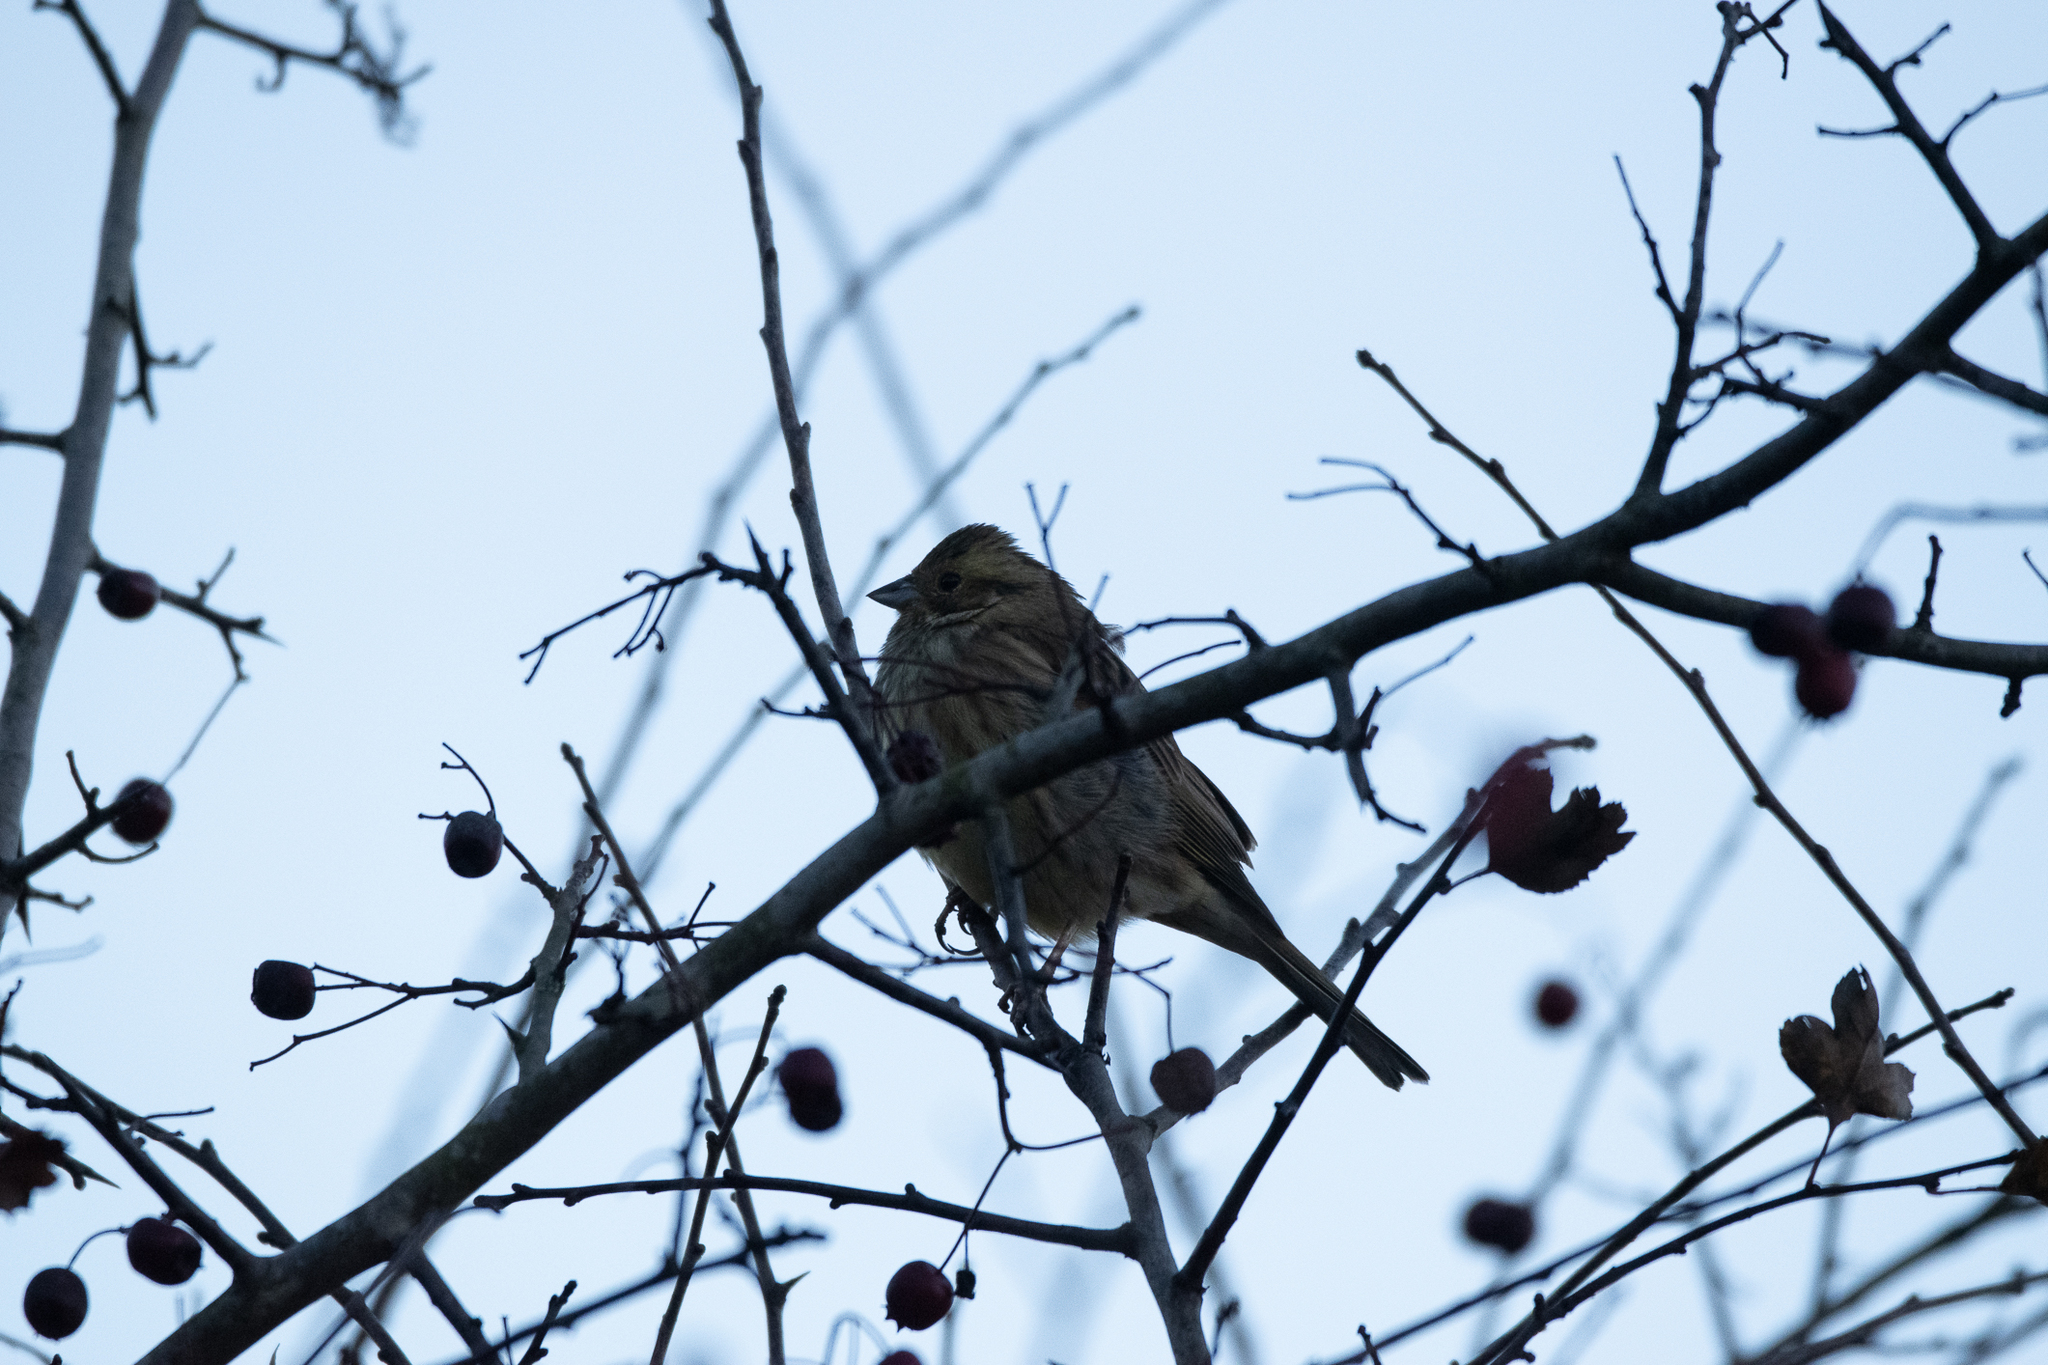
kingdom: Animalia
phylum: Chordata
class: Aves
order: Passeriformes
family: Emberizidae
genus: Emberiza
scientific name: Emberiza schoeniclus
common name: Reed bunting
